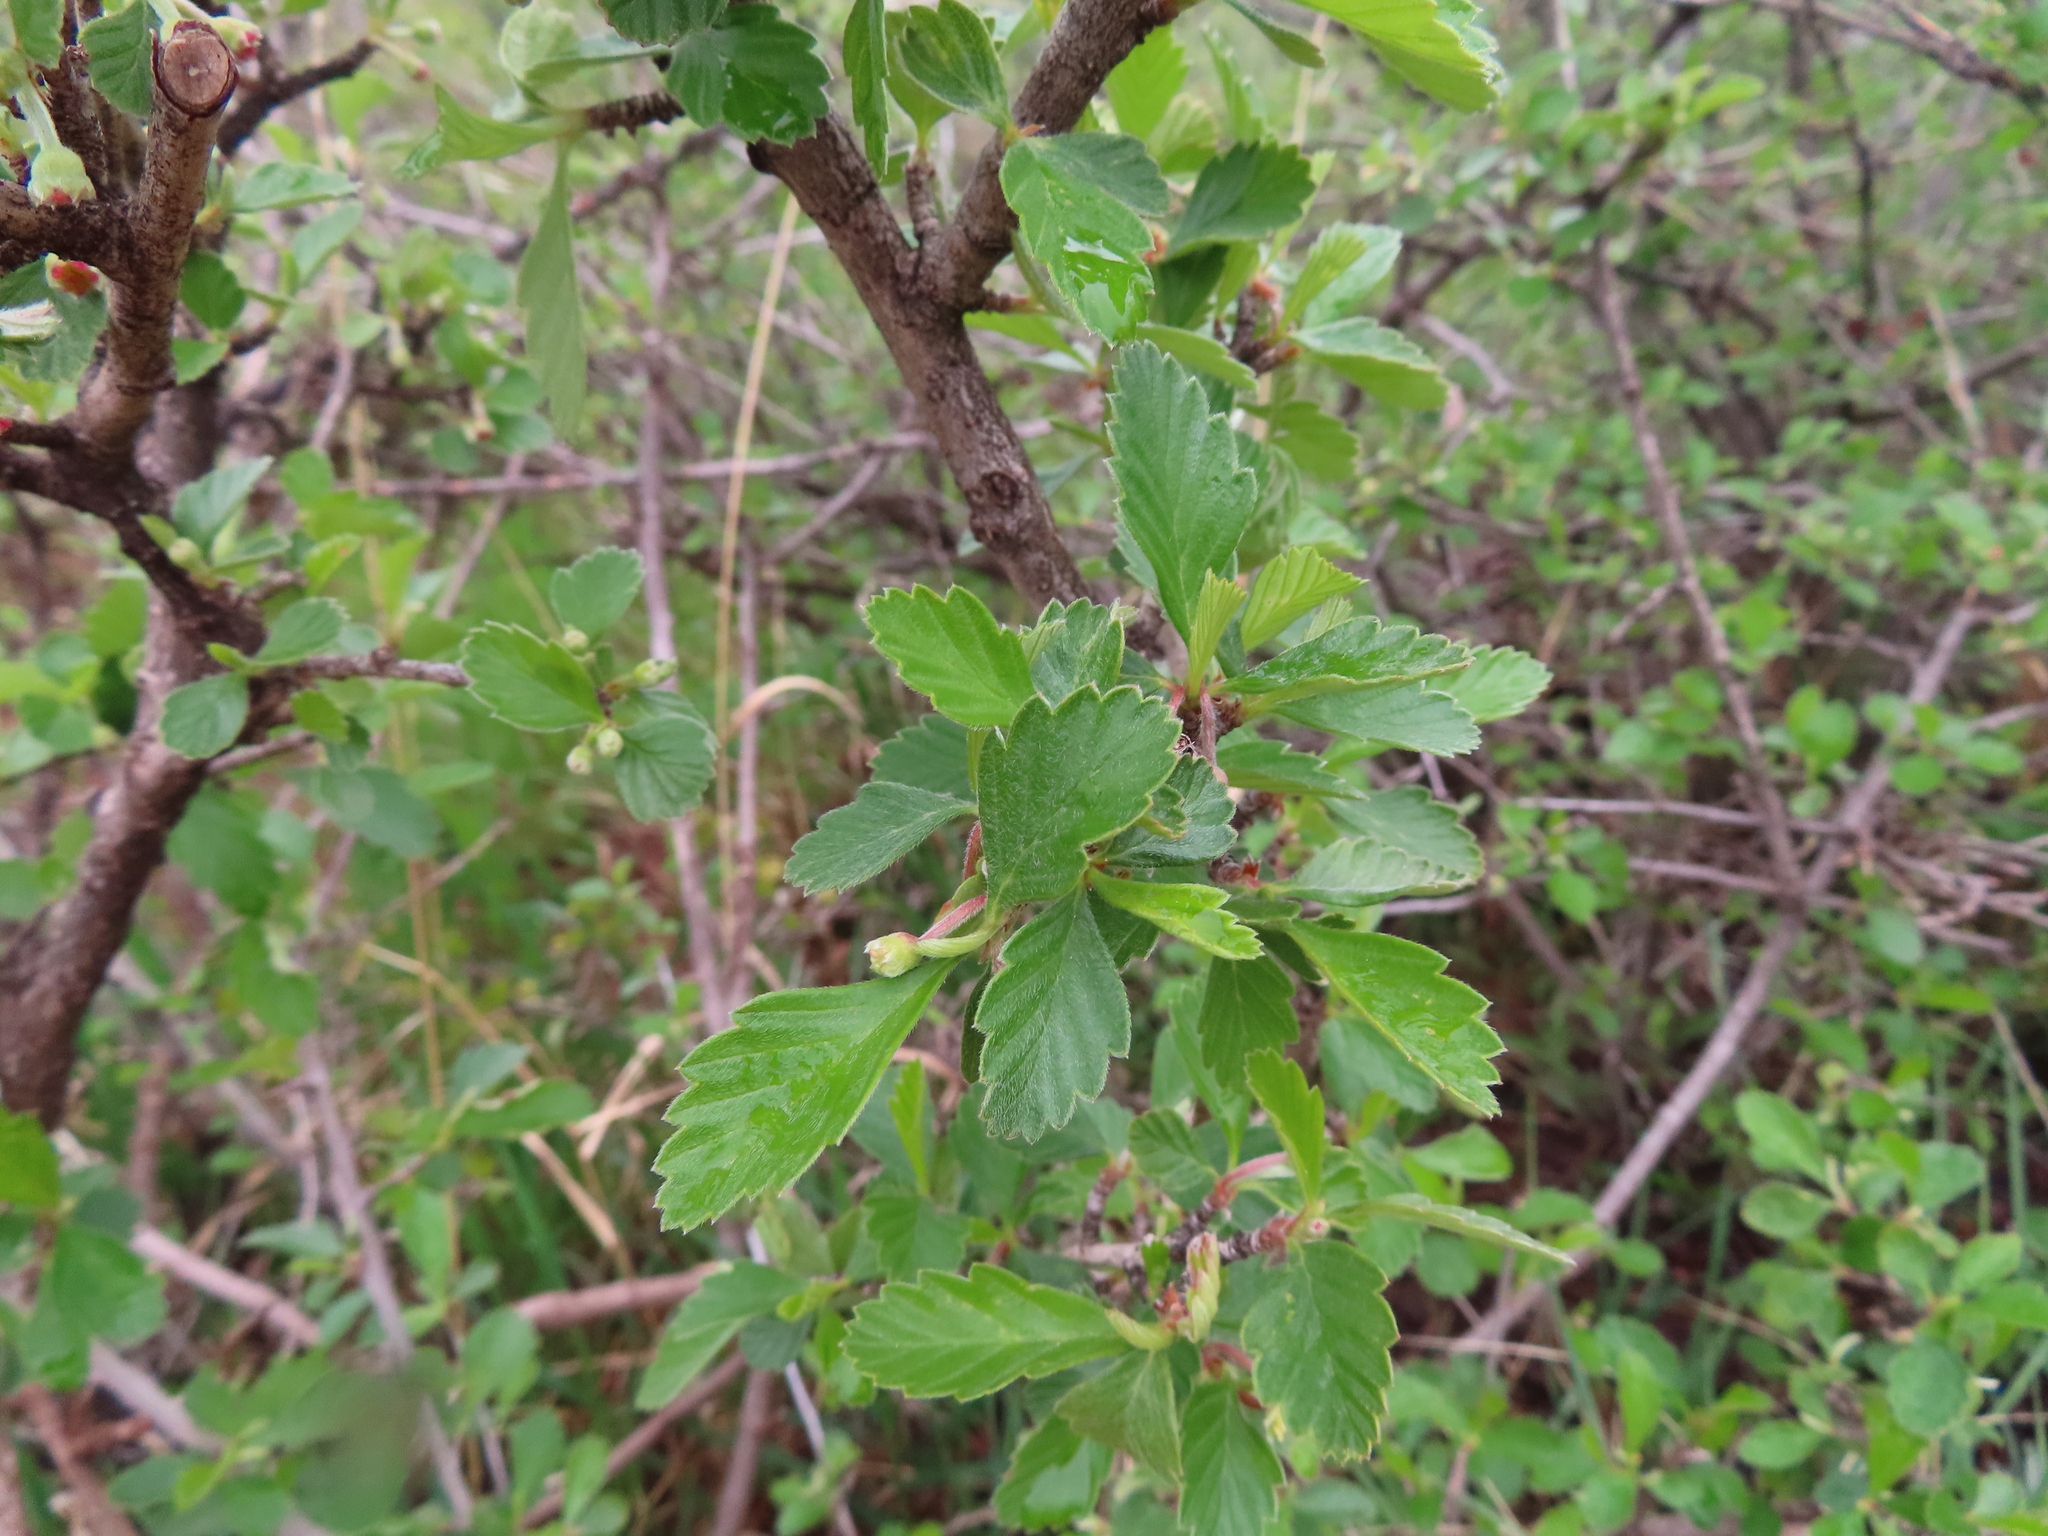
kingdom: Plantae
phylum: Tracheophyta
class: Magnoliopsida
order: Rosales
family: Rosaceae
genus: Cercocarpus
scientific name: Cercocarpus montanus
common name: Alder-leaf cercocarpus
